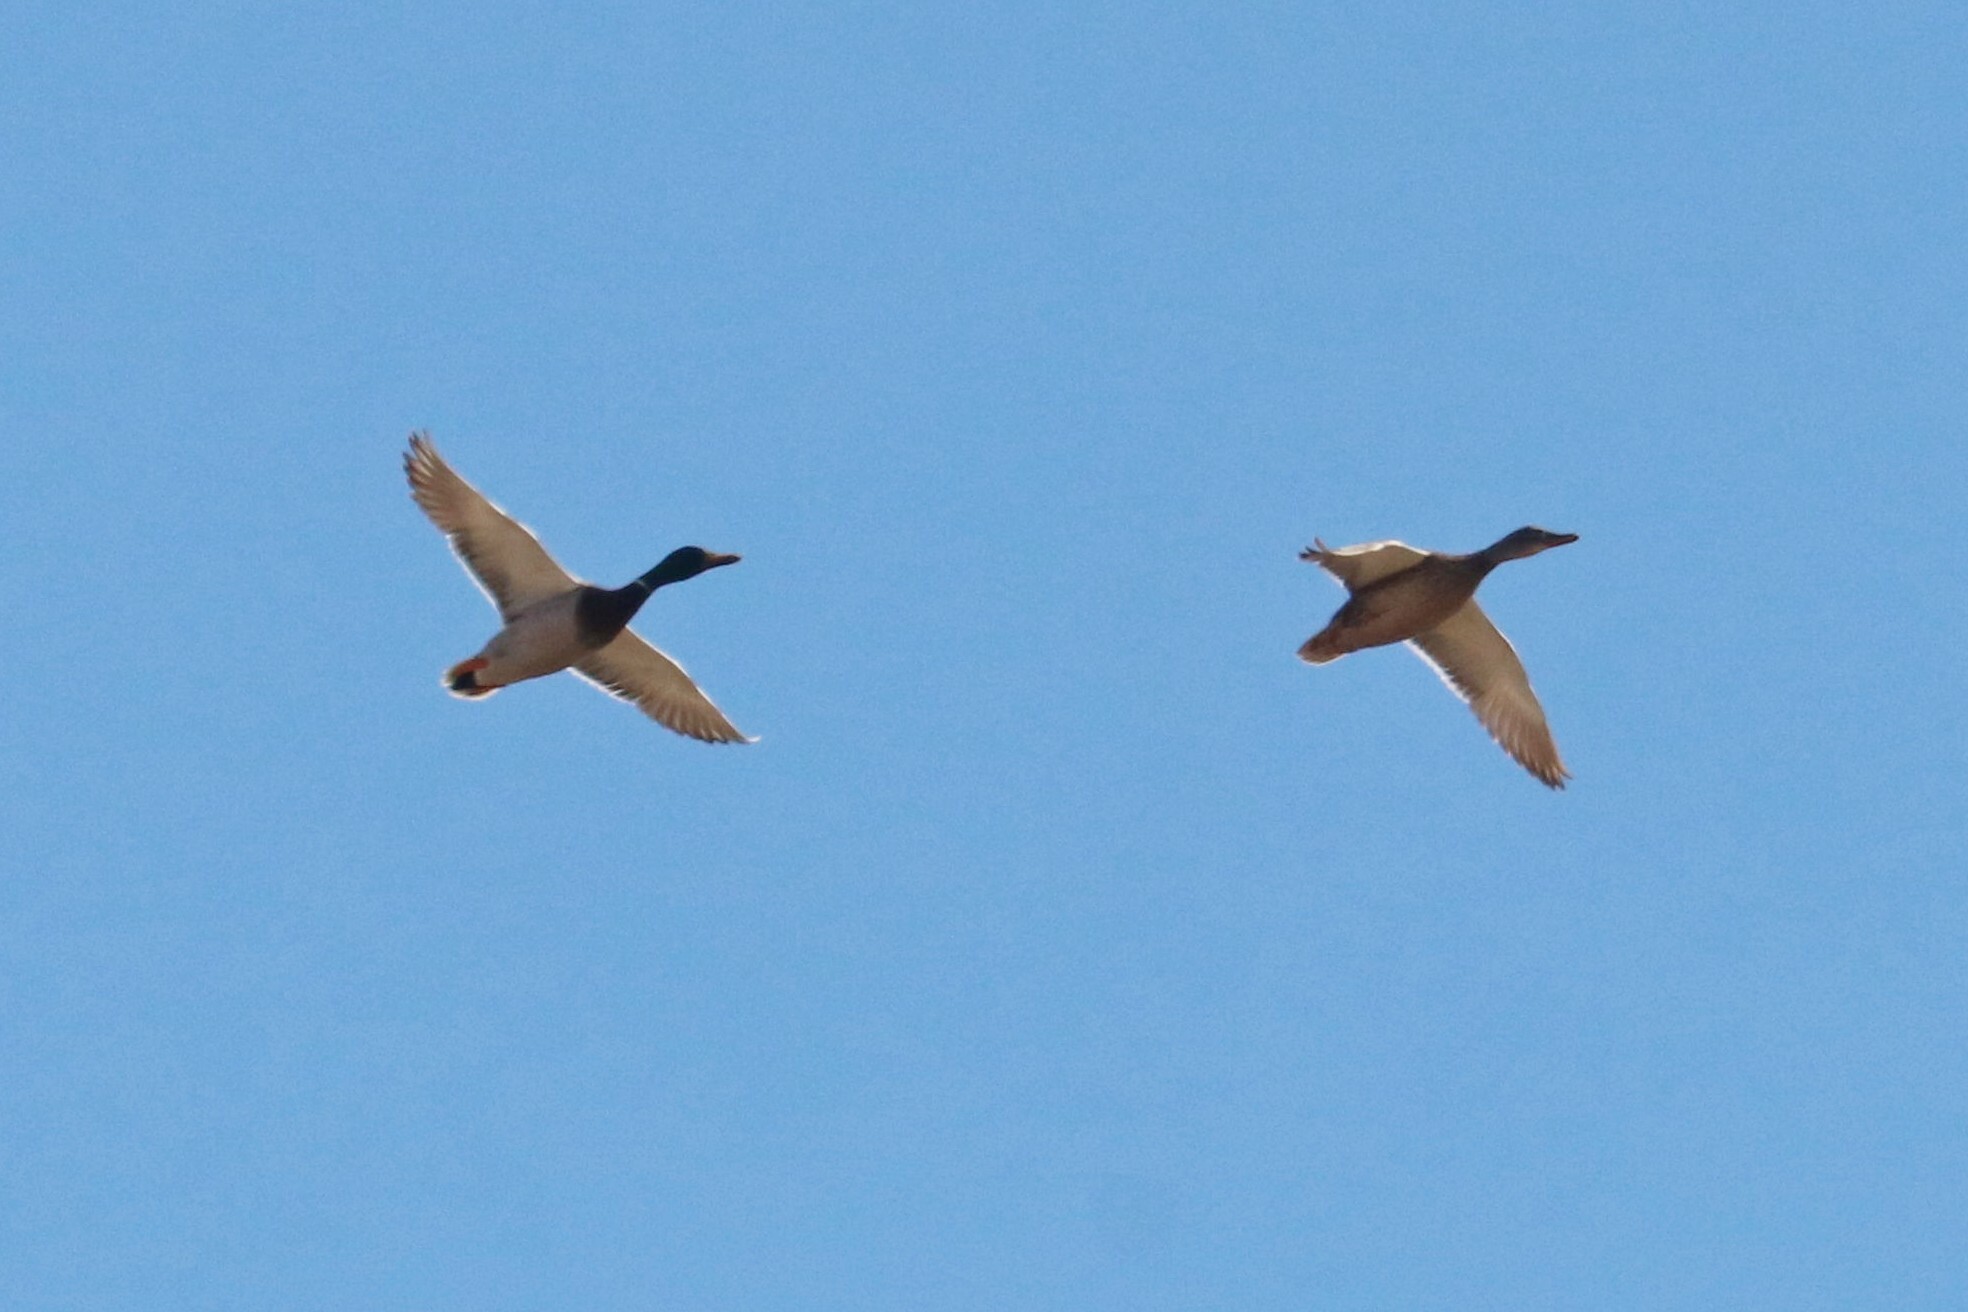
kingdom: Animalia
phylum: Chordata
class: Aves
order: Anseriformes
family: Anatidae
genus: Anas
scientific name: Anas platyrhynchos
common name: Mallard
